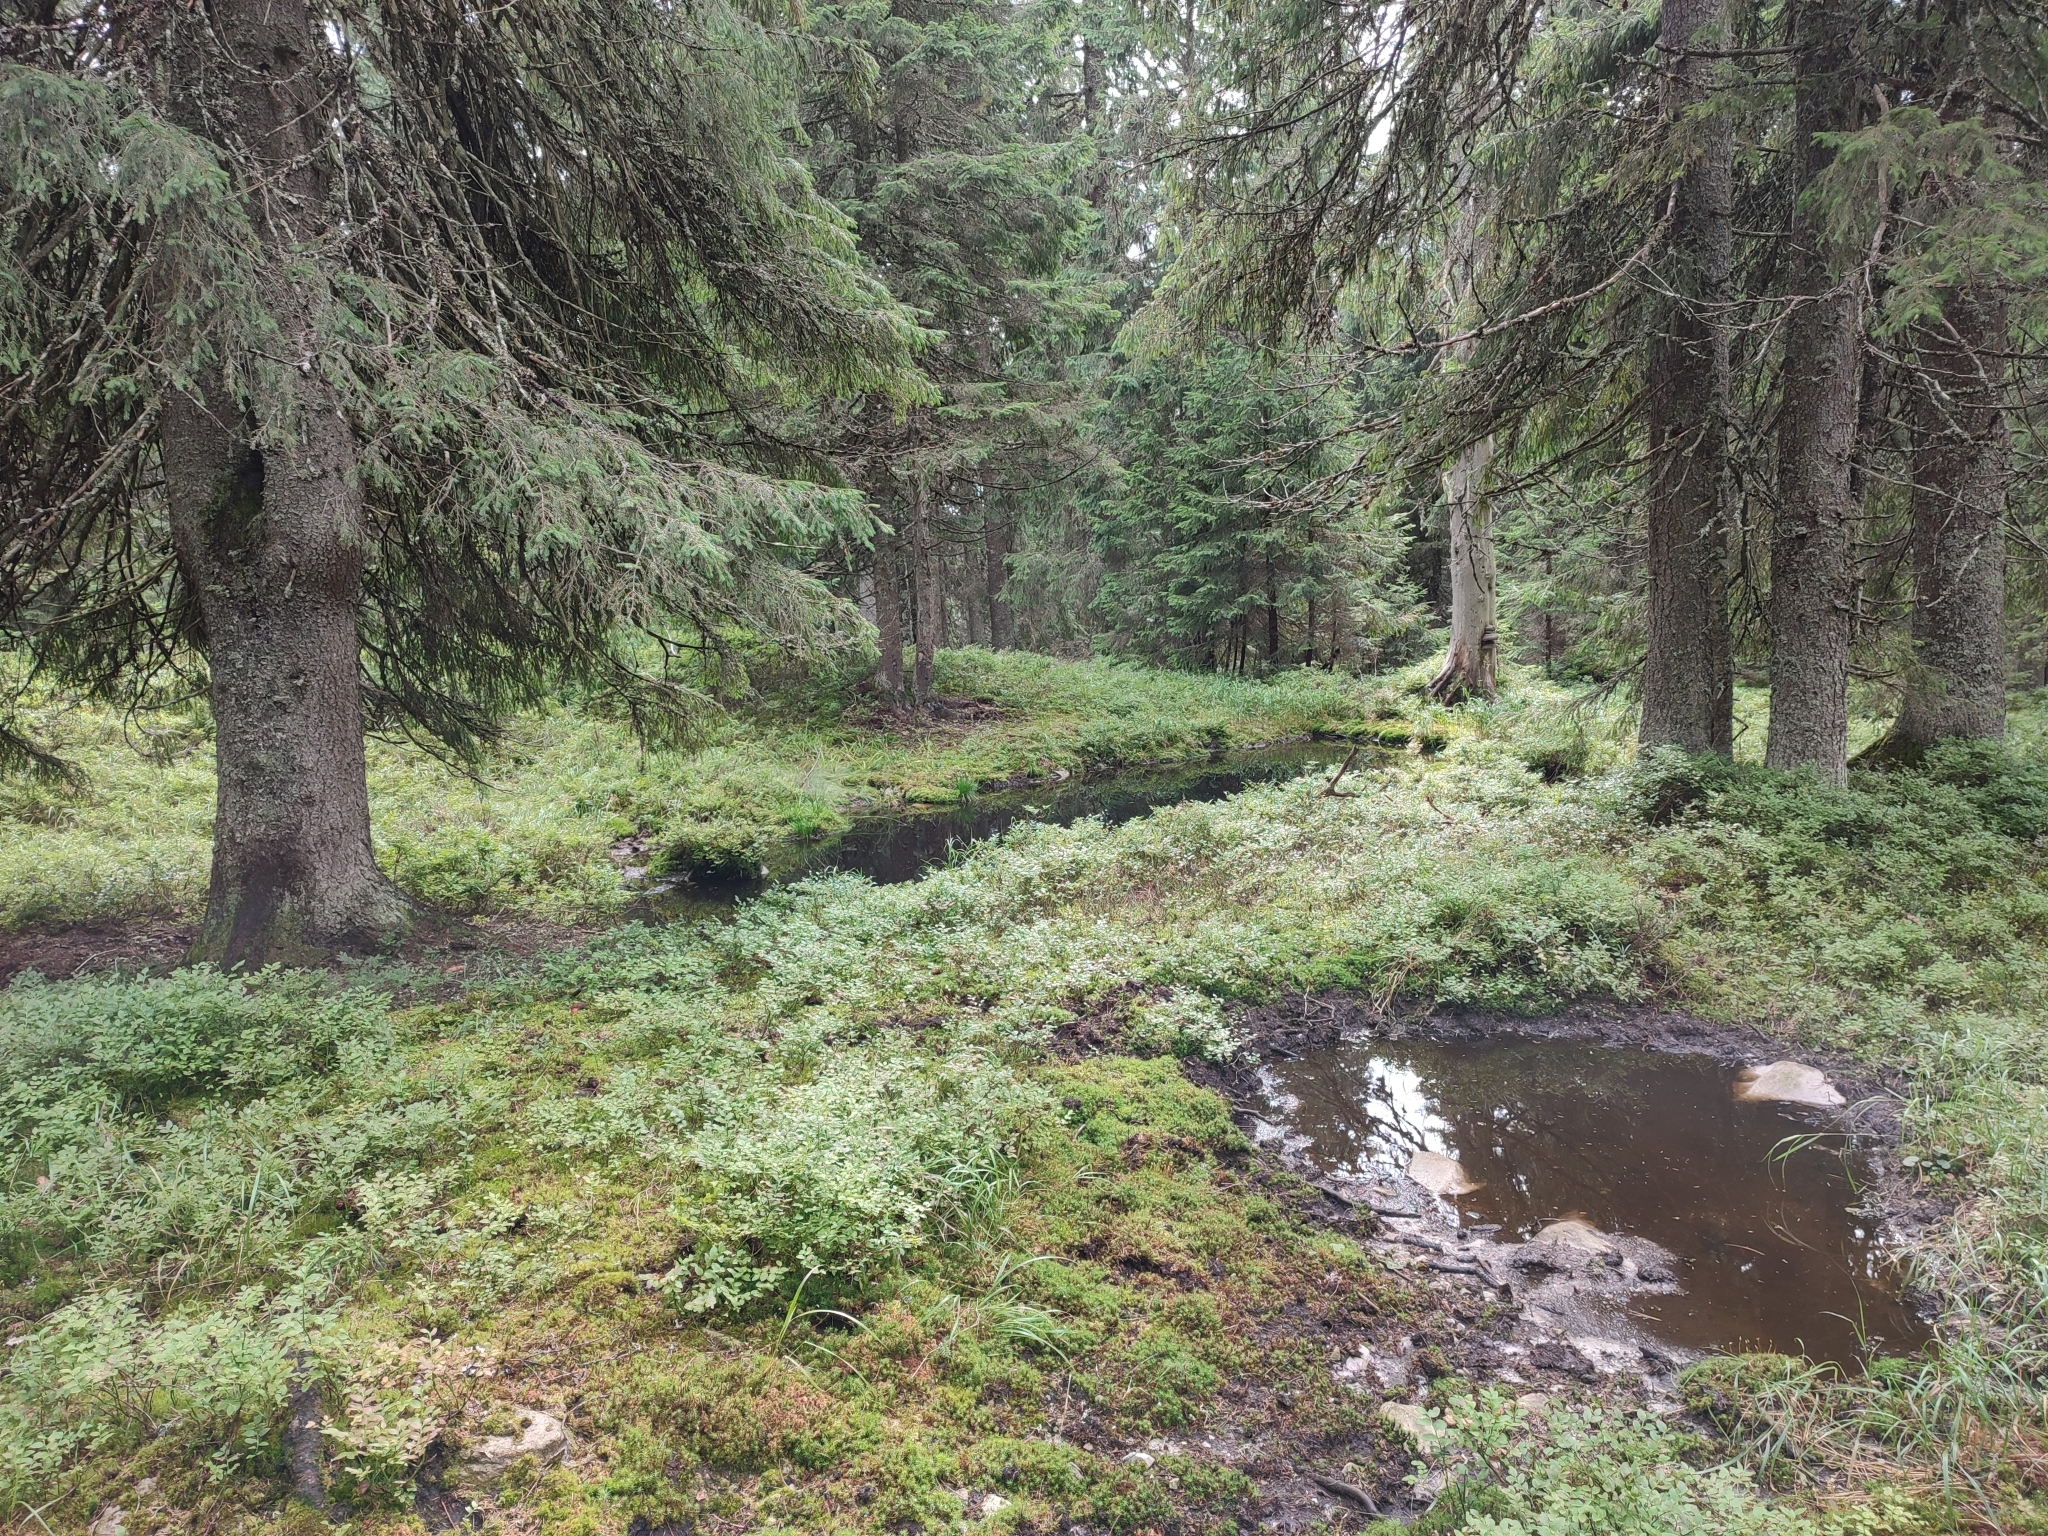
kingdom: Plantae
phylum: Tracheophyta
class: Pinopsida
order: Pinales
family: Pinaceae
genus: Picea
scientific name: Picea abies
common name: Norway spruce
